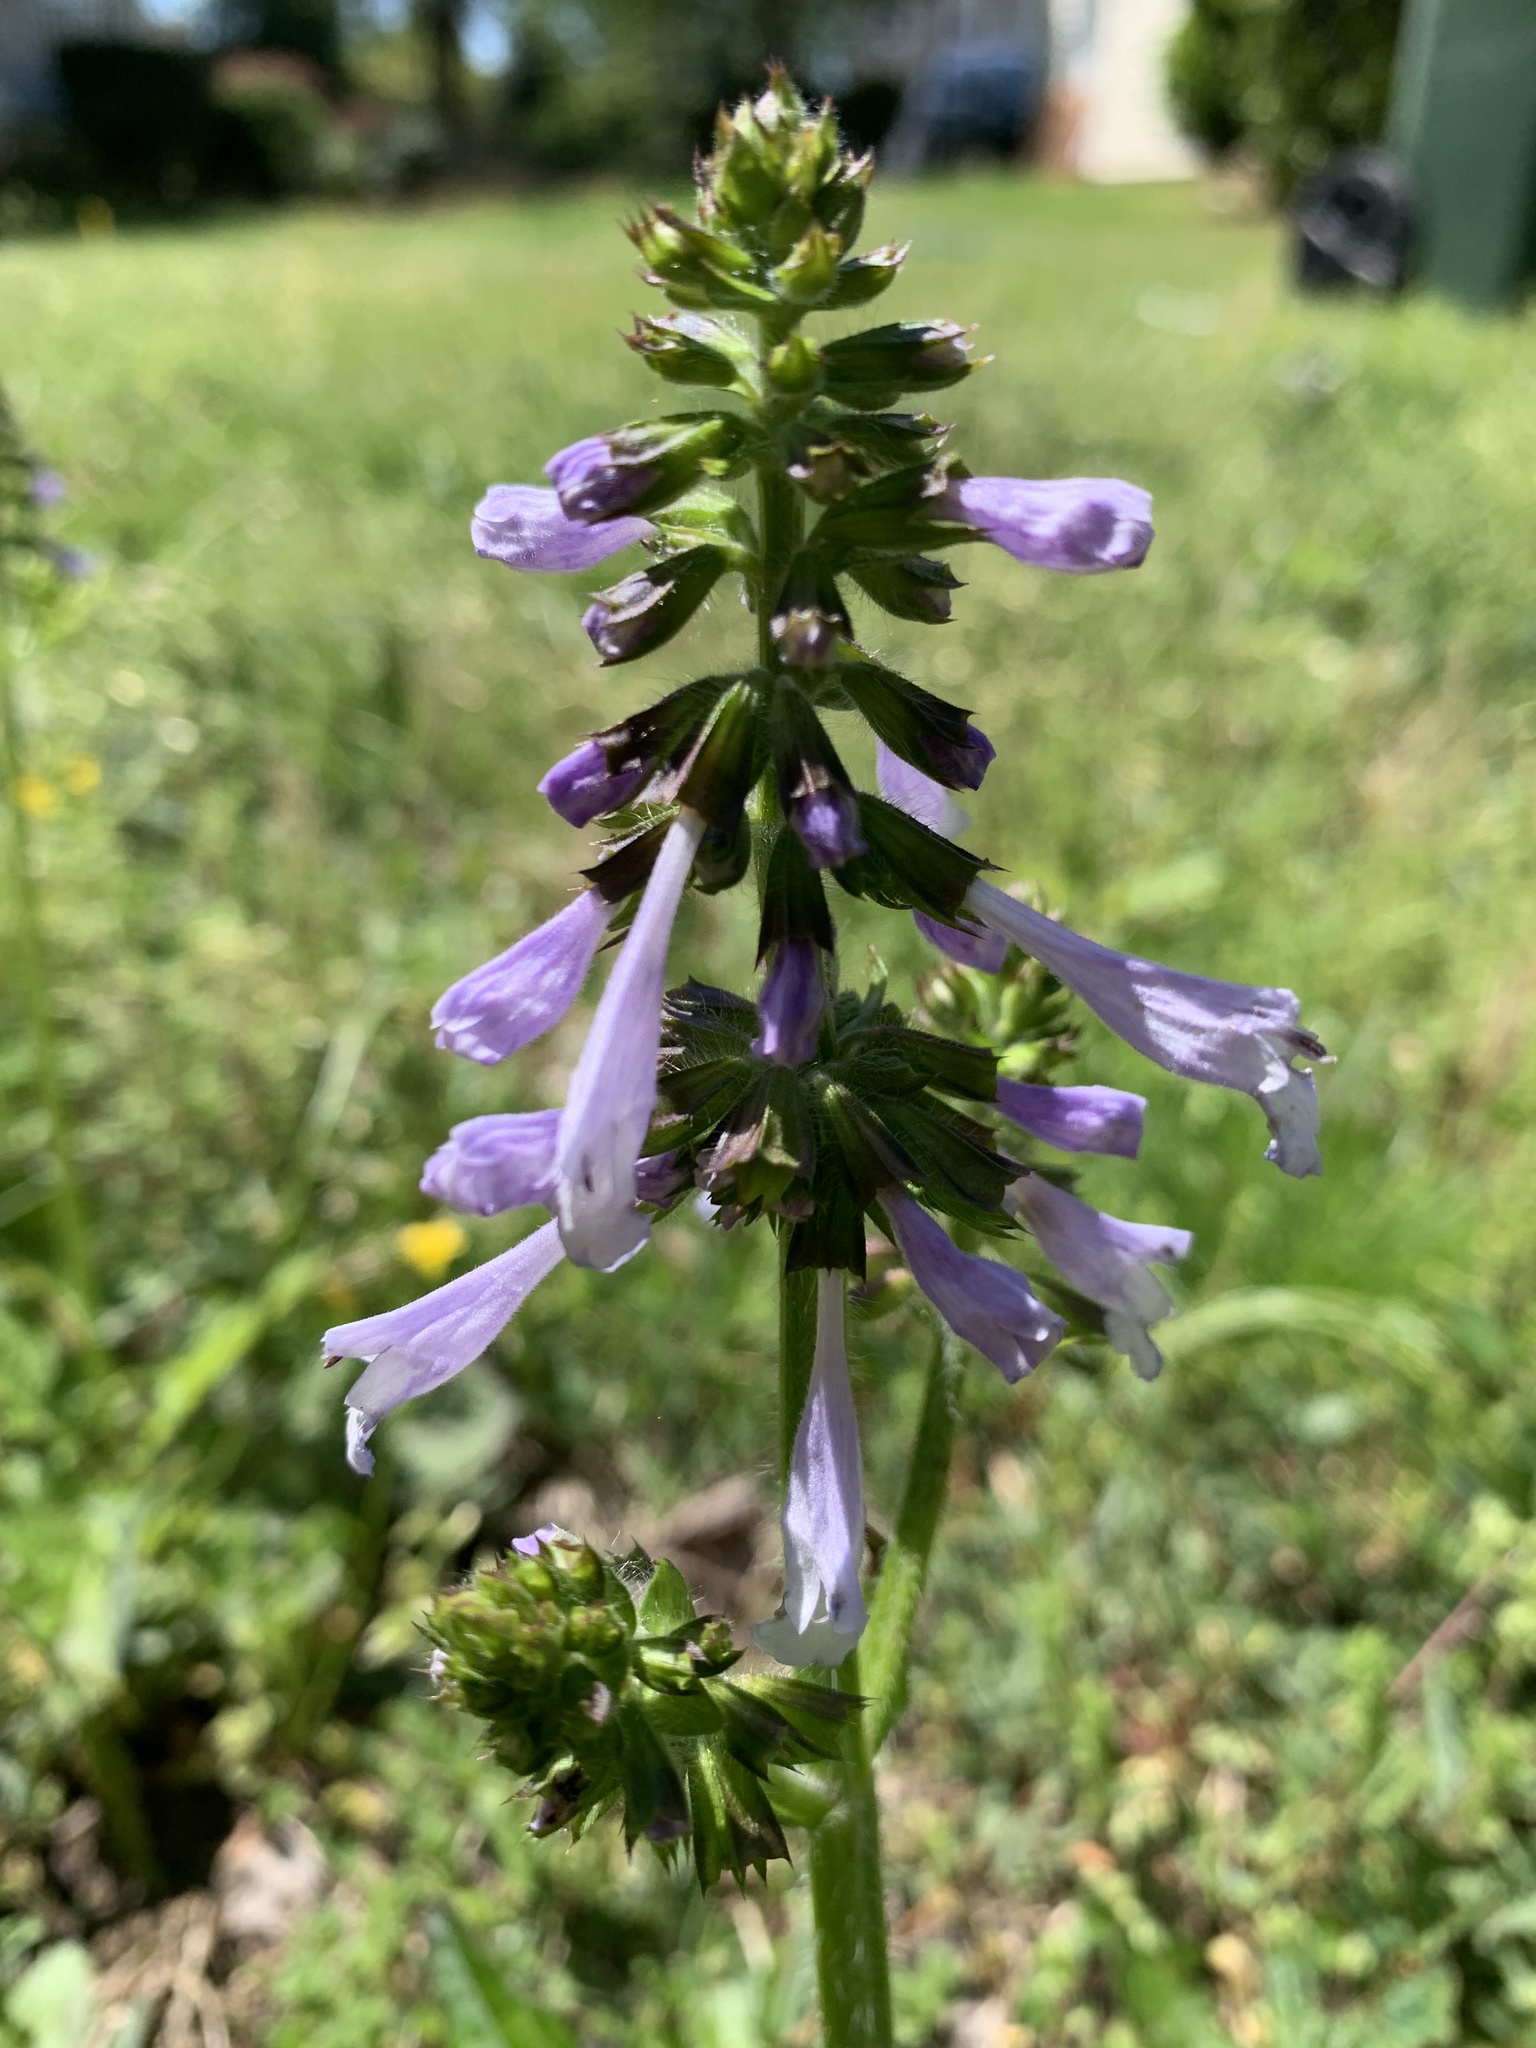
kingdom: Plantae
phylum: Tracheophyta
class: Magnoliopsida
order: Lamiales
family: Lamiaceae
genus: Salvia
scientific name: Salvia lyrata
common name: Cancerweed
